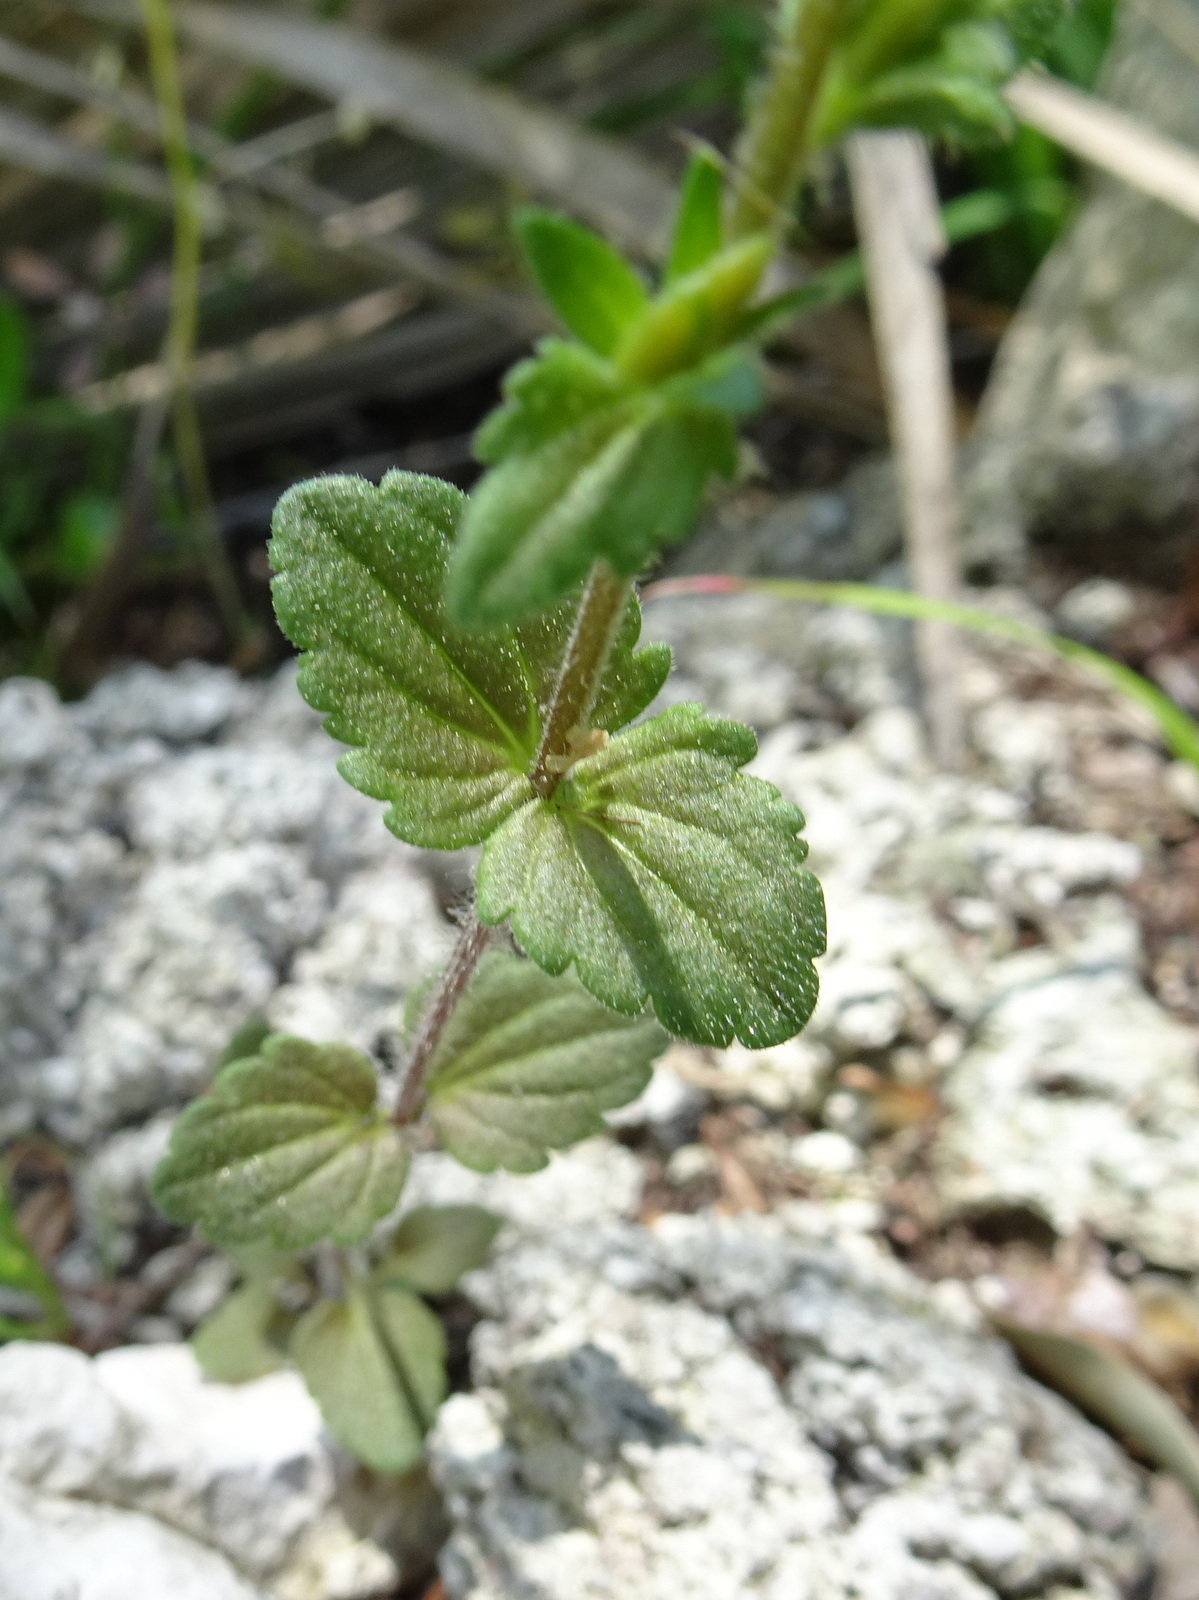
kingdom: Plantae
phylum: Tracheophyta
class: Magnoliopsida
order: Lamiales
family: Plantaginaceae
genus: Veronica
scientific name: Veronica arvensis
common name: Corn speedwell
